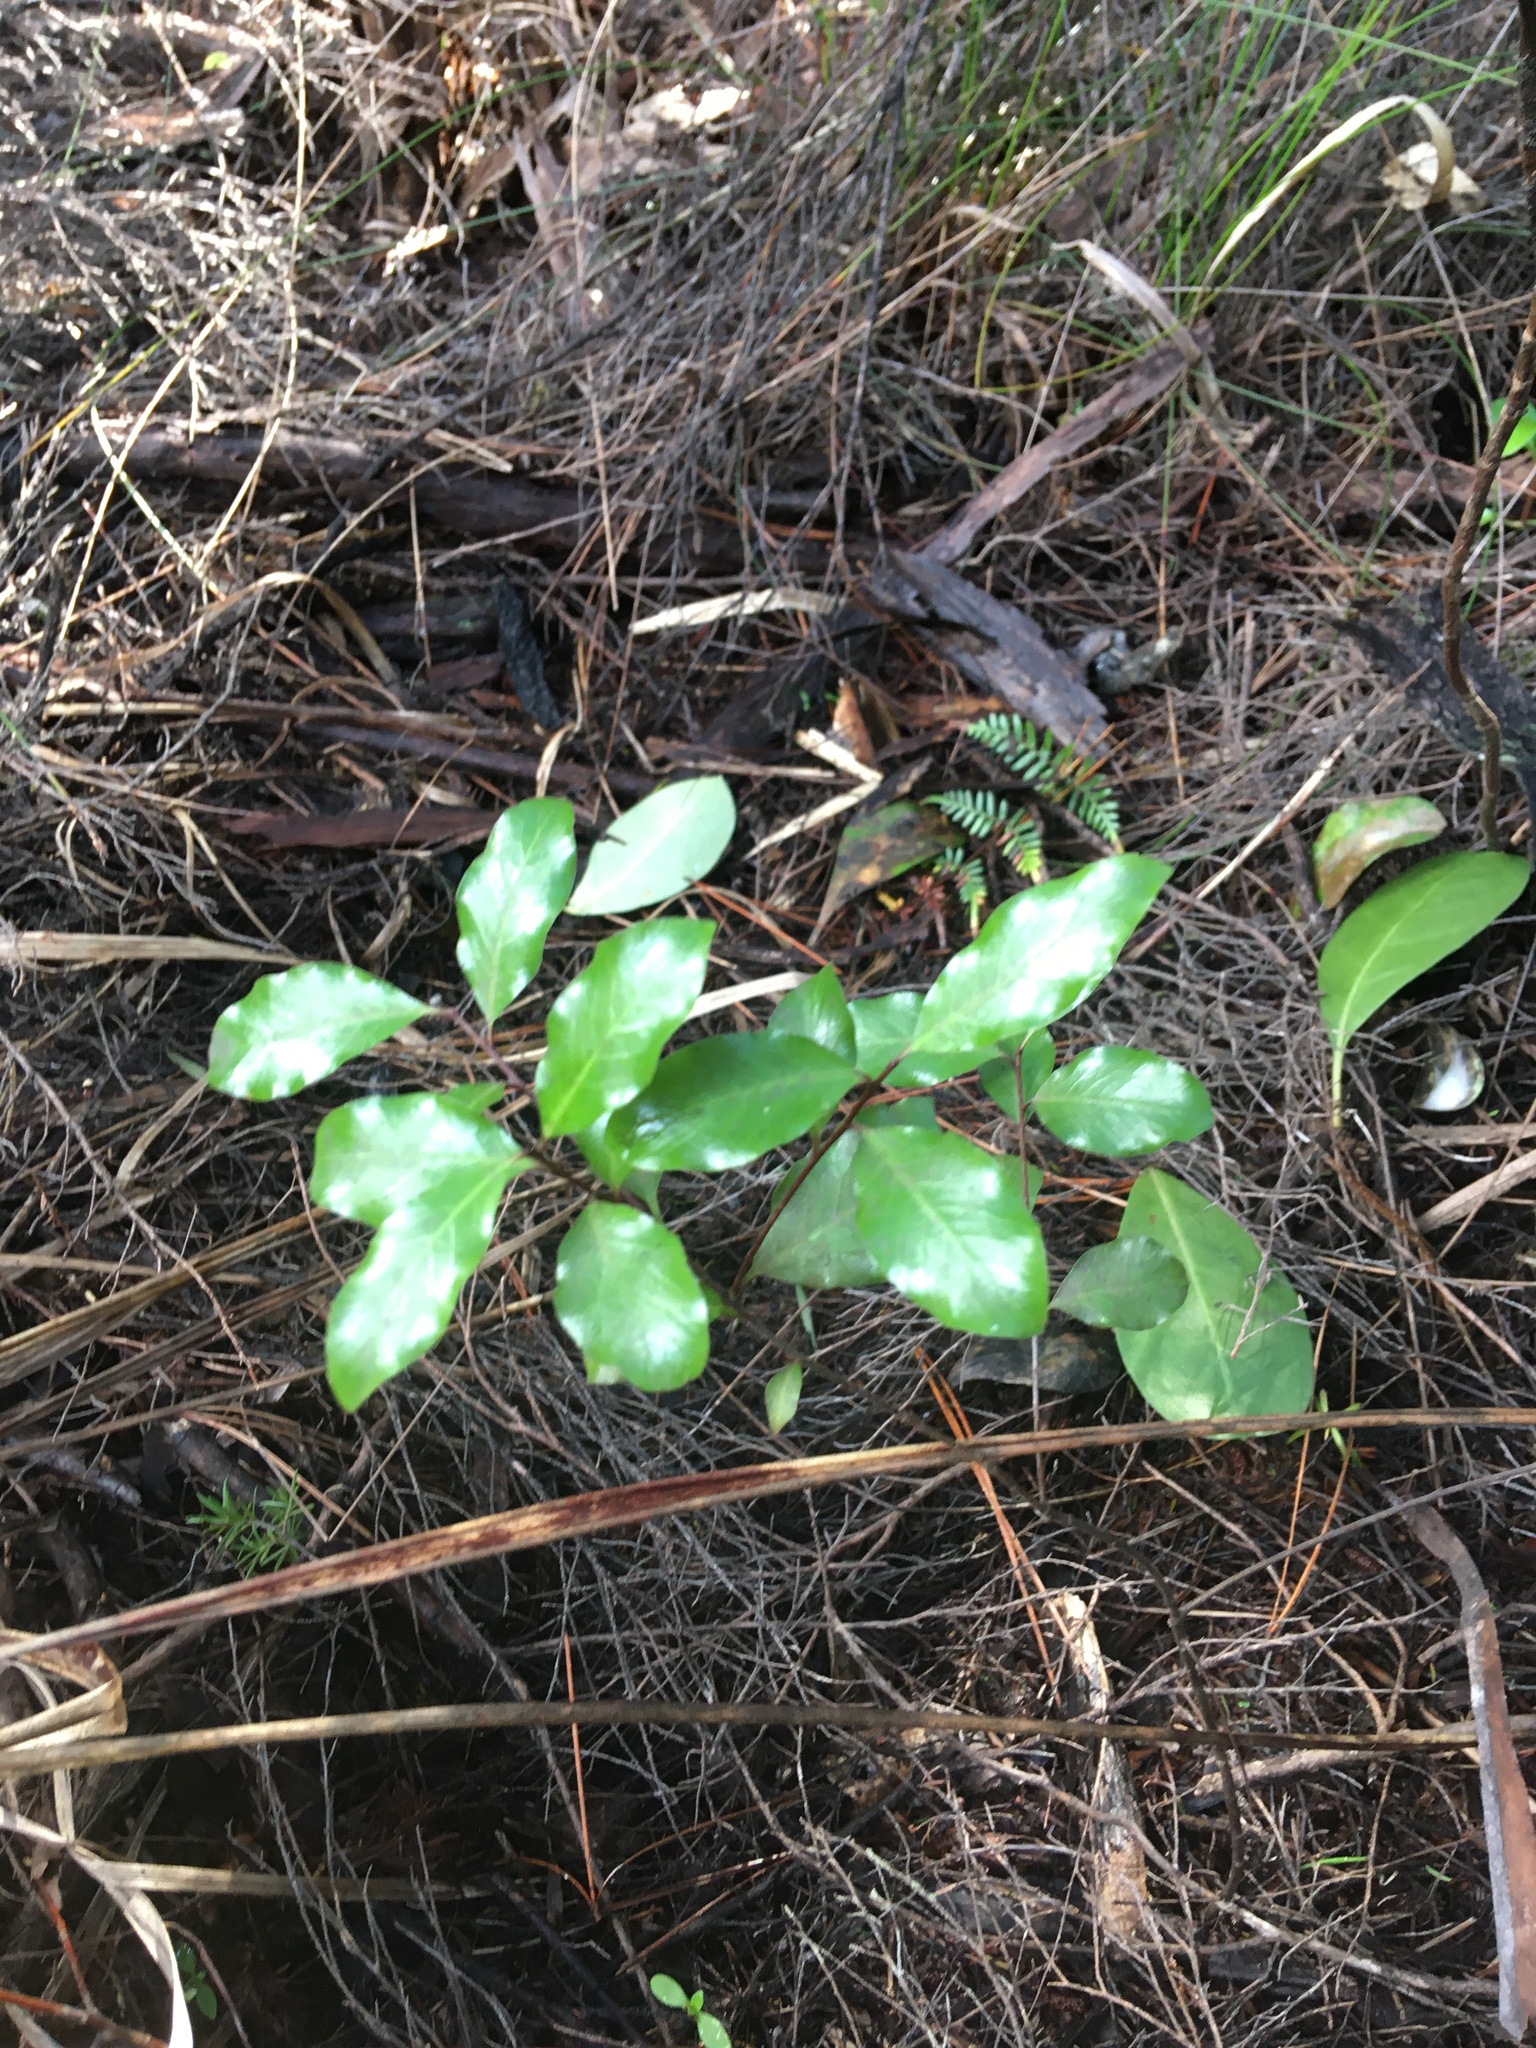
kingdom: Plantae
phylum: Tracheophyta
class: Magnoliopsida
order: Apiales
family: Pittosporaceae
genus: Pittosporum
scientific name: Pittosporum tenuifolium
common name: Kohuhu
